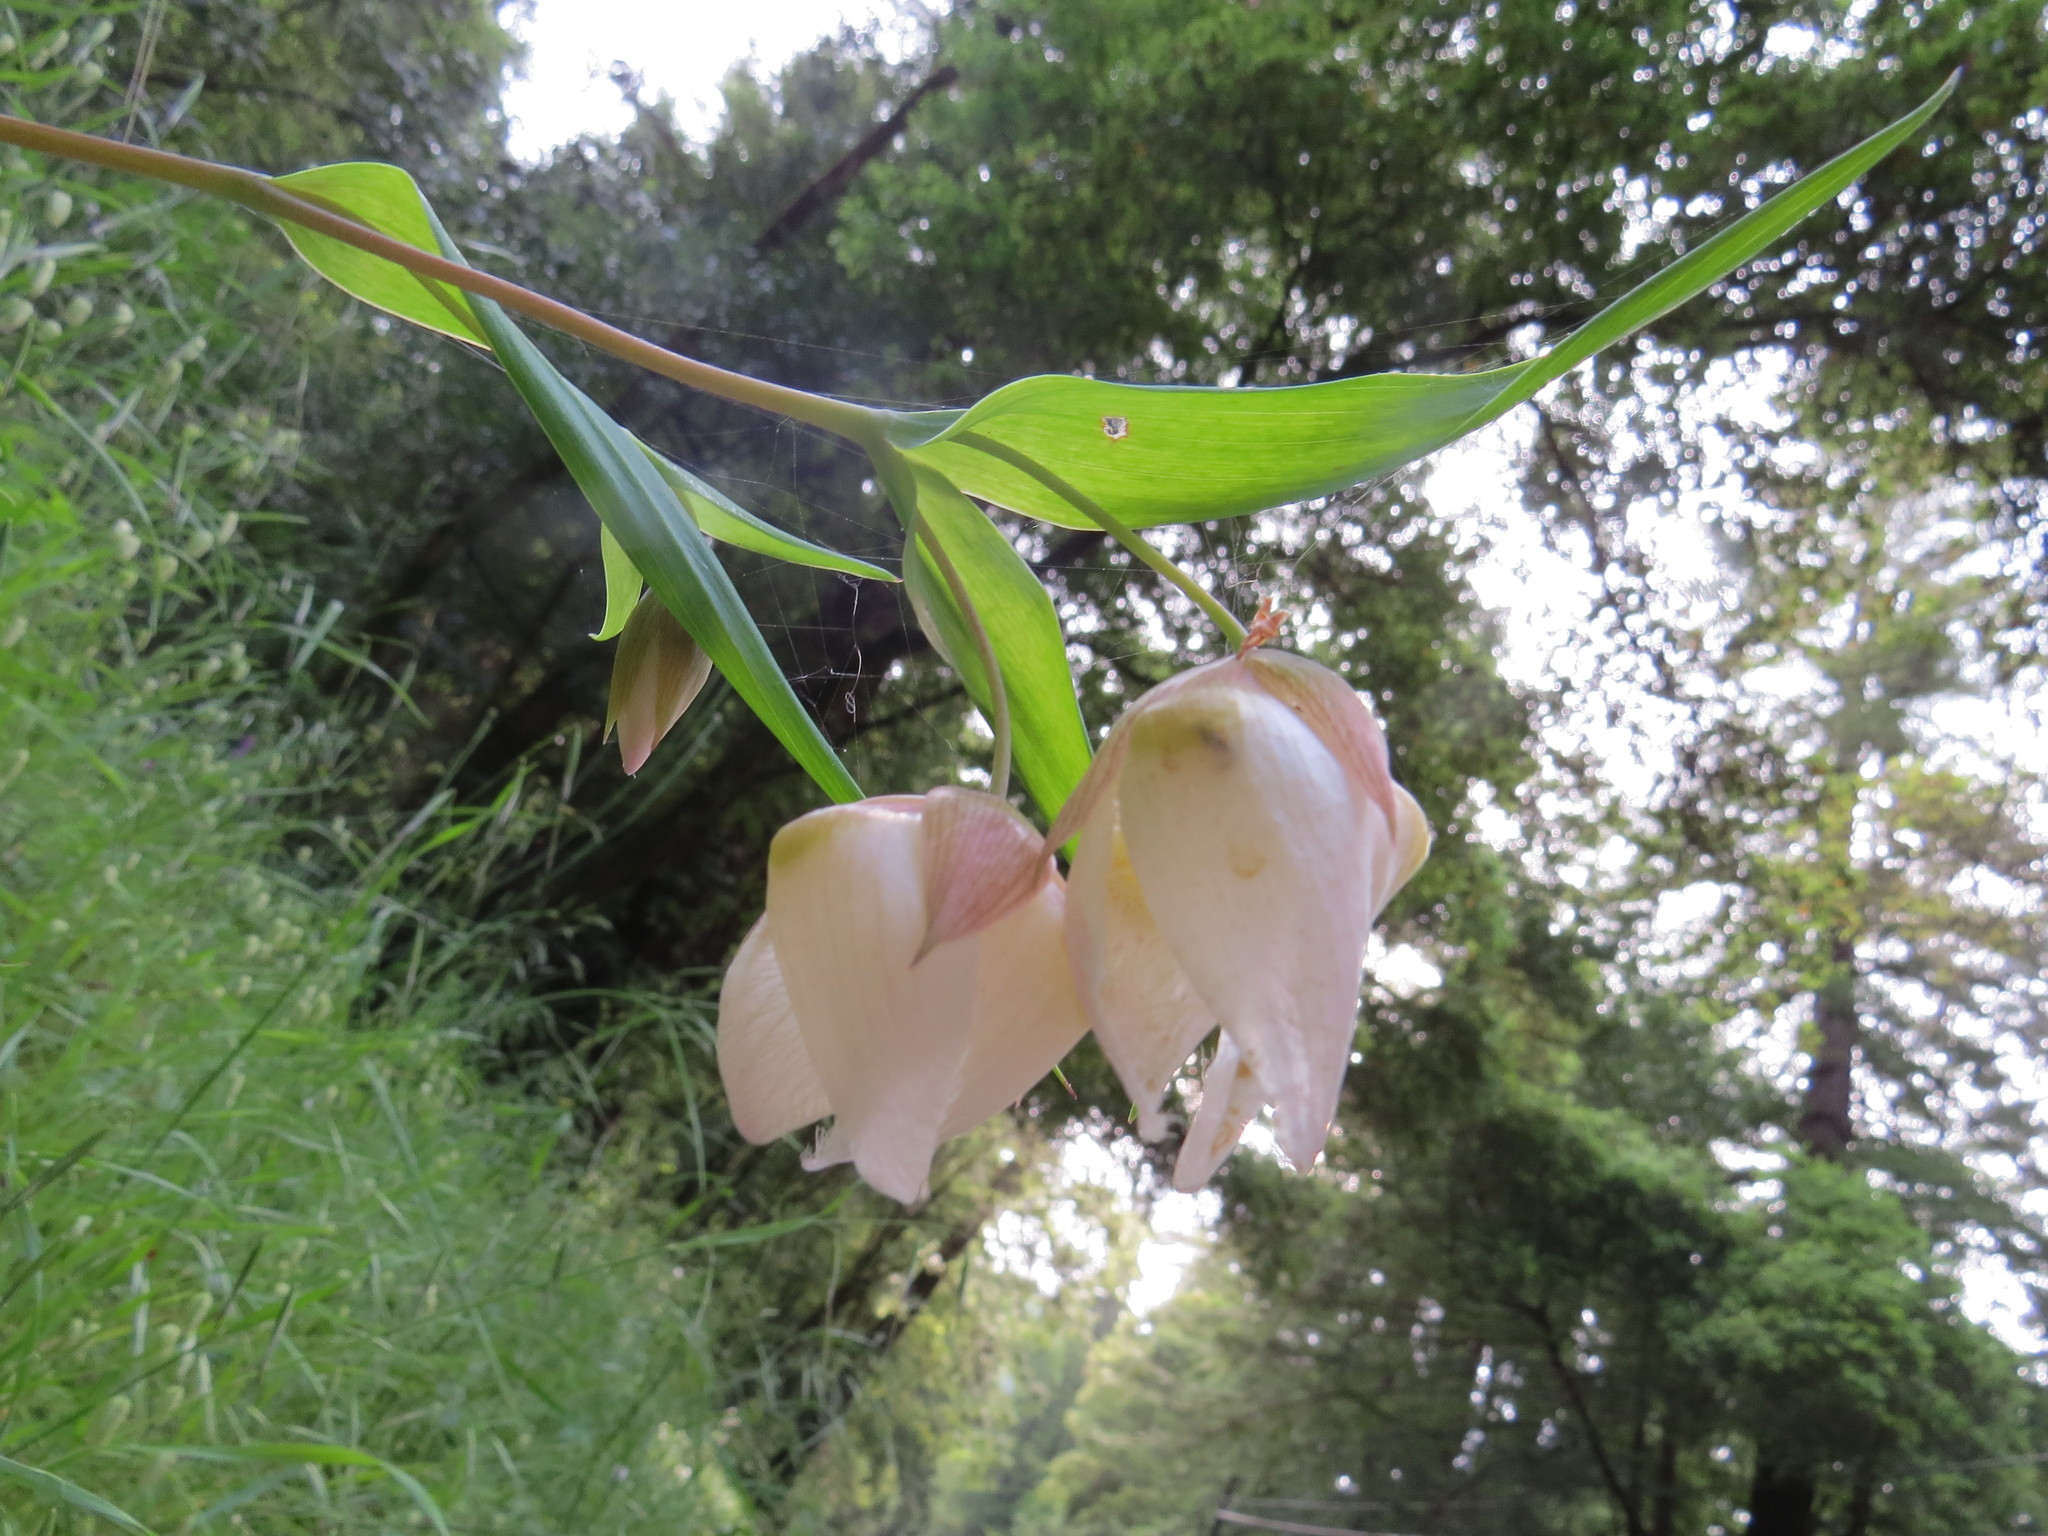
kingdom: Plantae
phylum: Tracheophyta
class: Liliopsida
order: Liliales
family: Liliaceae
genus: Calochortus
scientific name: Calochortus albus
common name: Fairy-lantern
